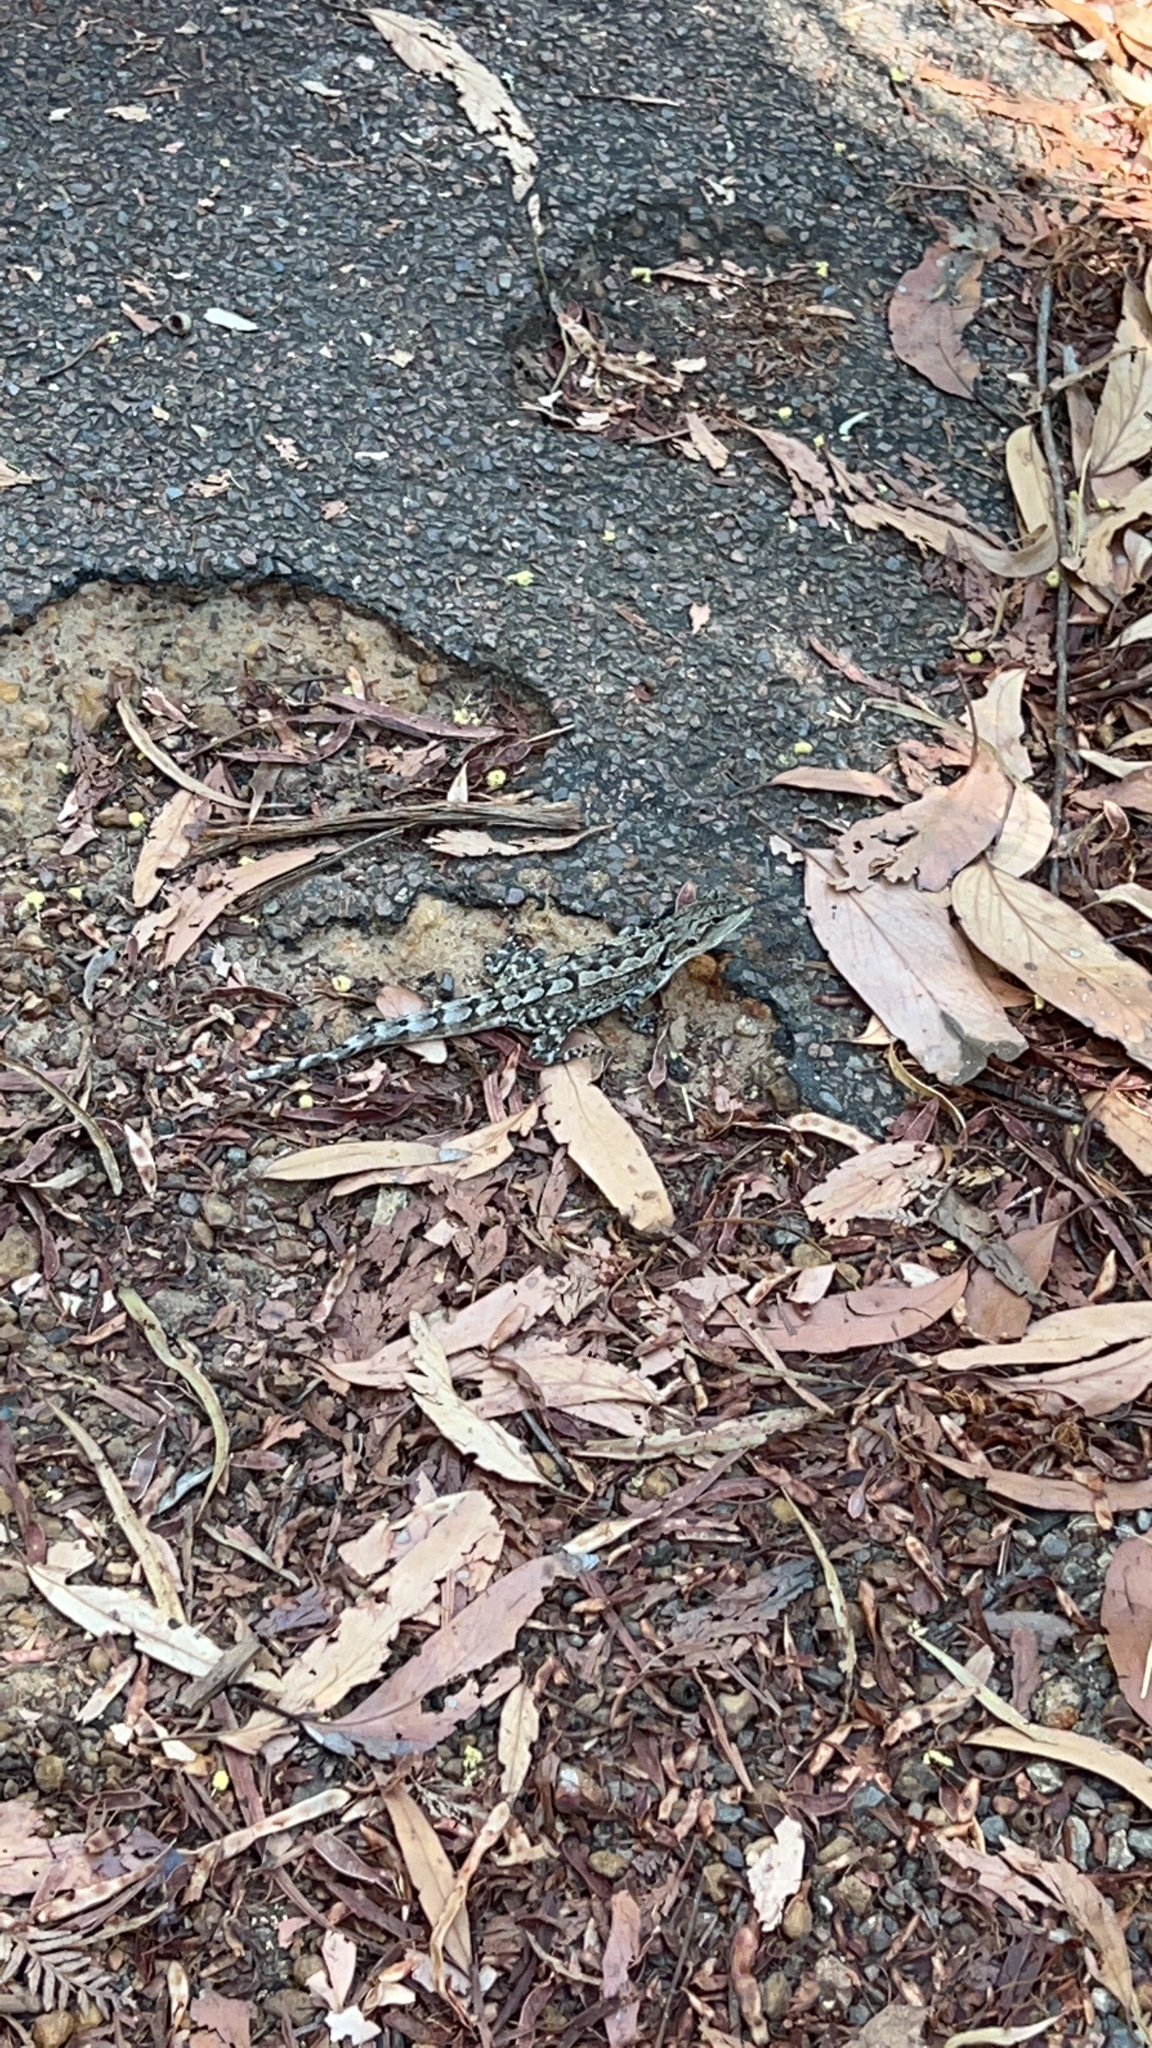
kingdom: Animalia
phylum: Chordata
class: Squamata
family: Agamidae
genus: Amphibolurus
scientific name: Amphibolurus muricatus
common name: Jacky lizard
